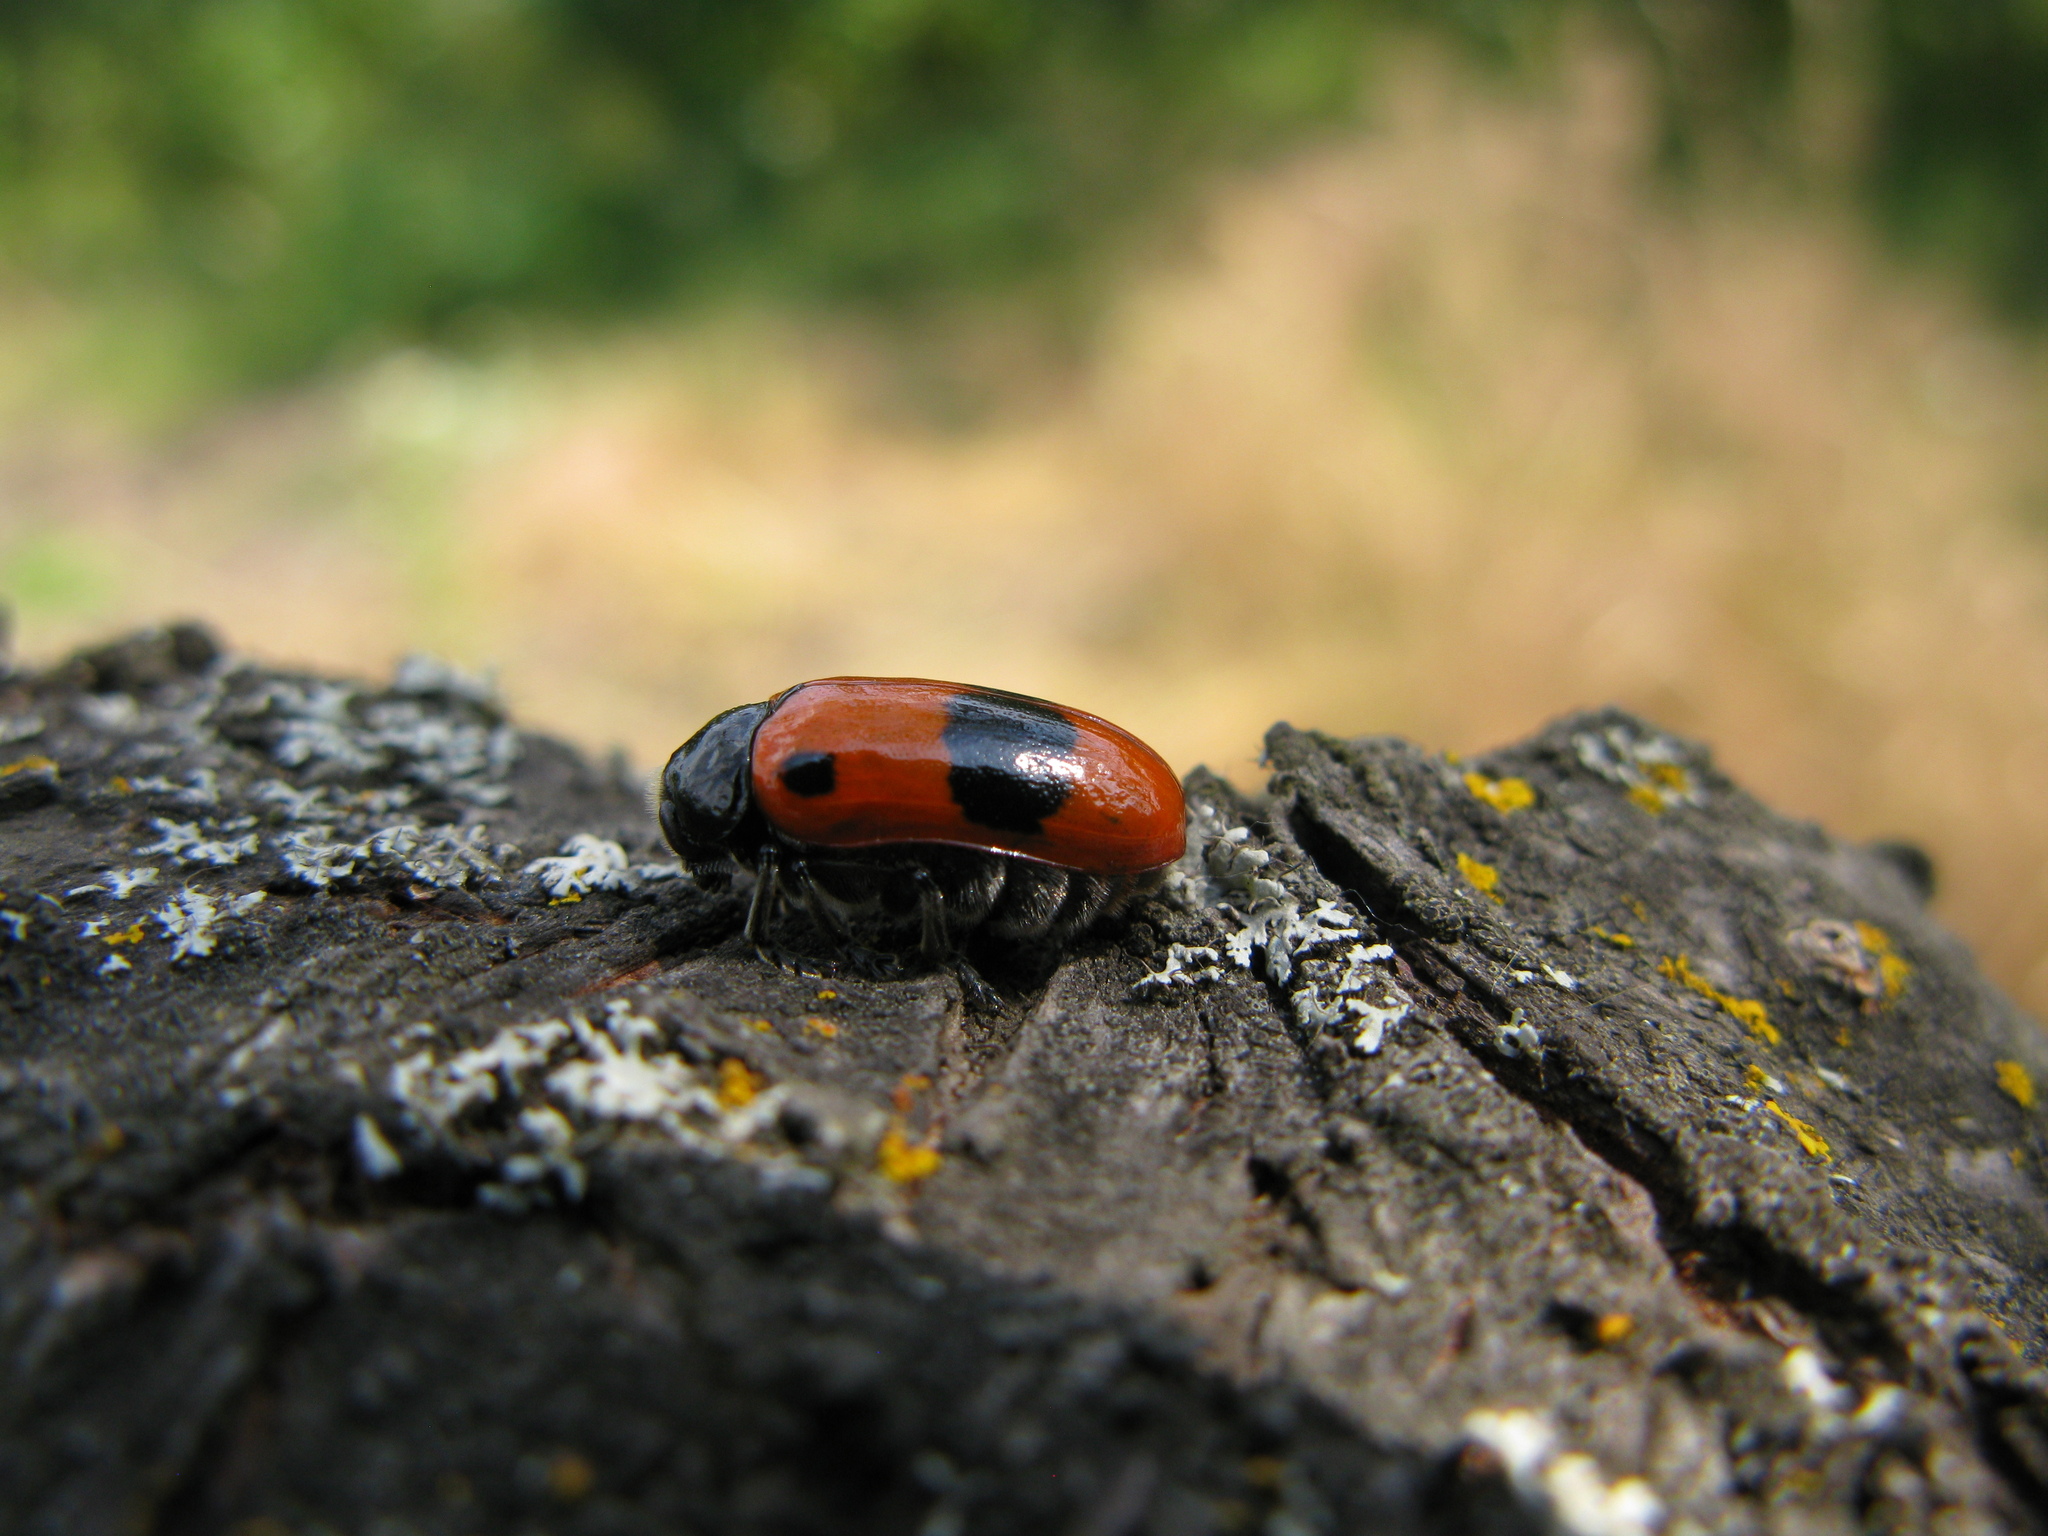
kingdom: Animalia
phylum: Arthropoda
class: Insecta
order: Coleoptera
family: Chrysomelidae
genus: Clytra
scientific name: Clytra laeviuscula
